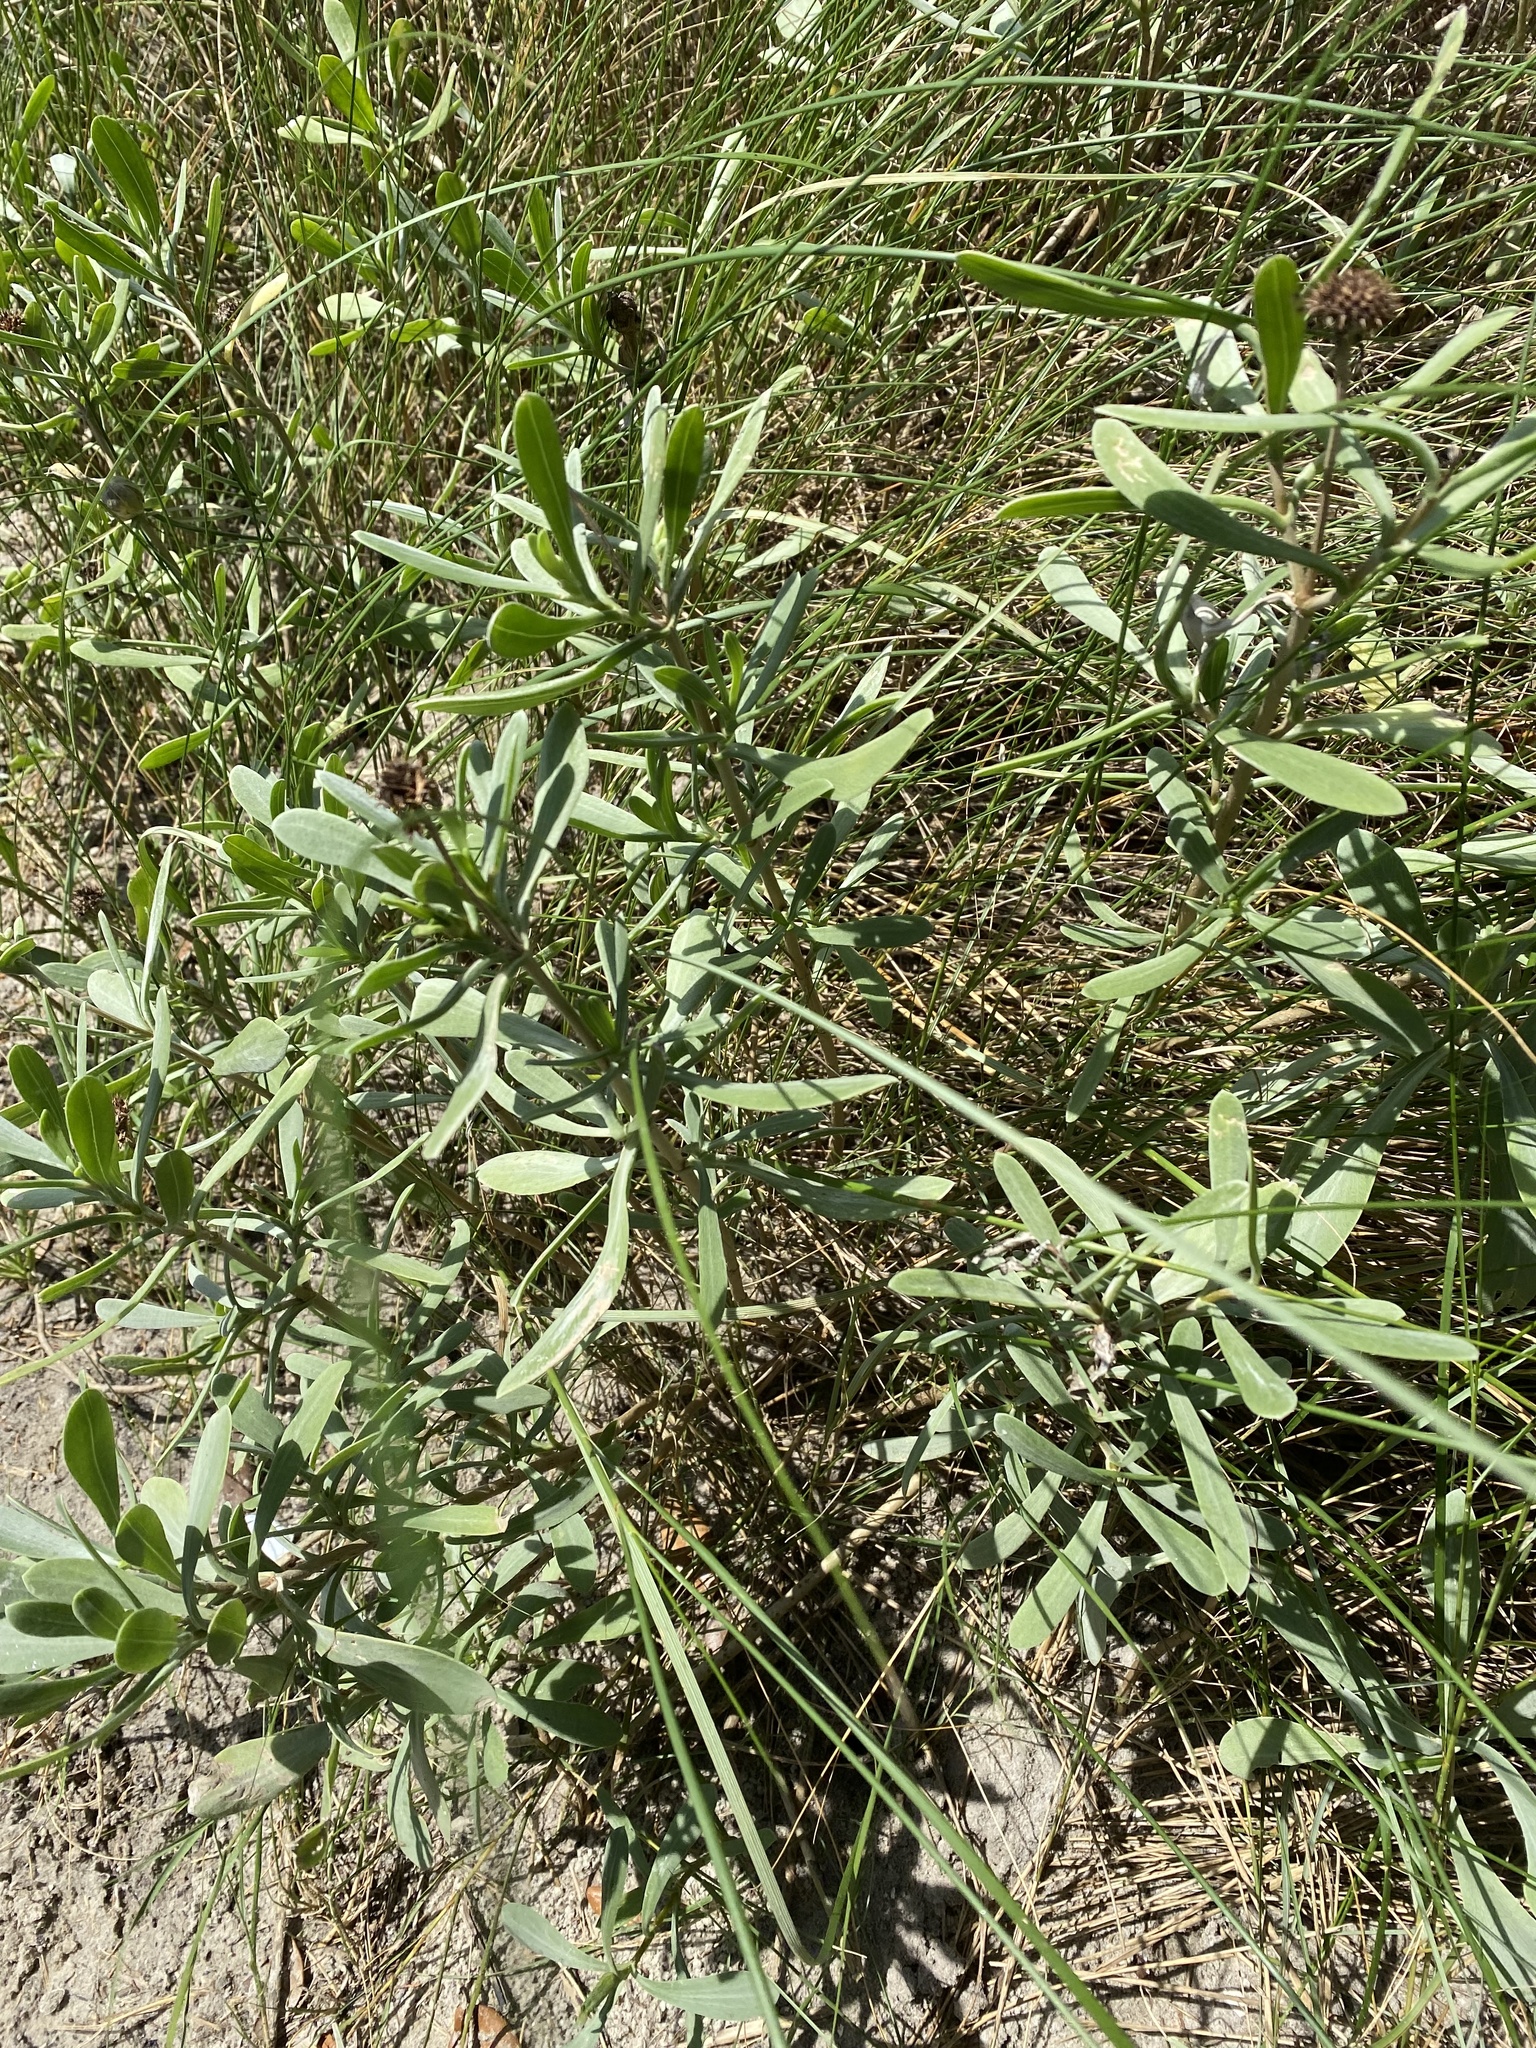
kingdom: Plantae
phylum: Tracheophyta
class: Magnoliopsida
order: Asterales
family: Asteraceae
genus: Borrichia
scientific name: Borrichia frutescens
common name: Sea oxeye
